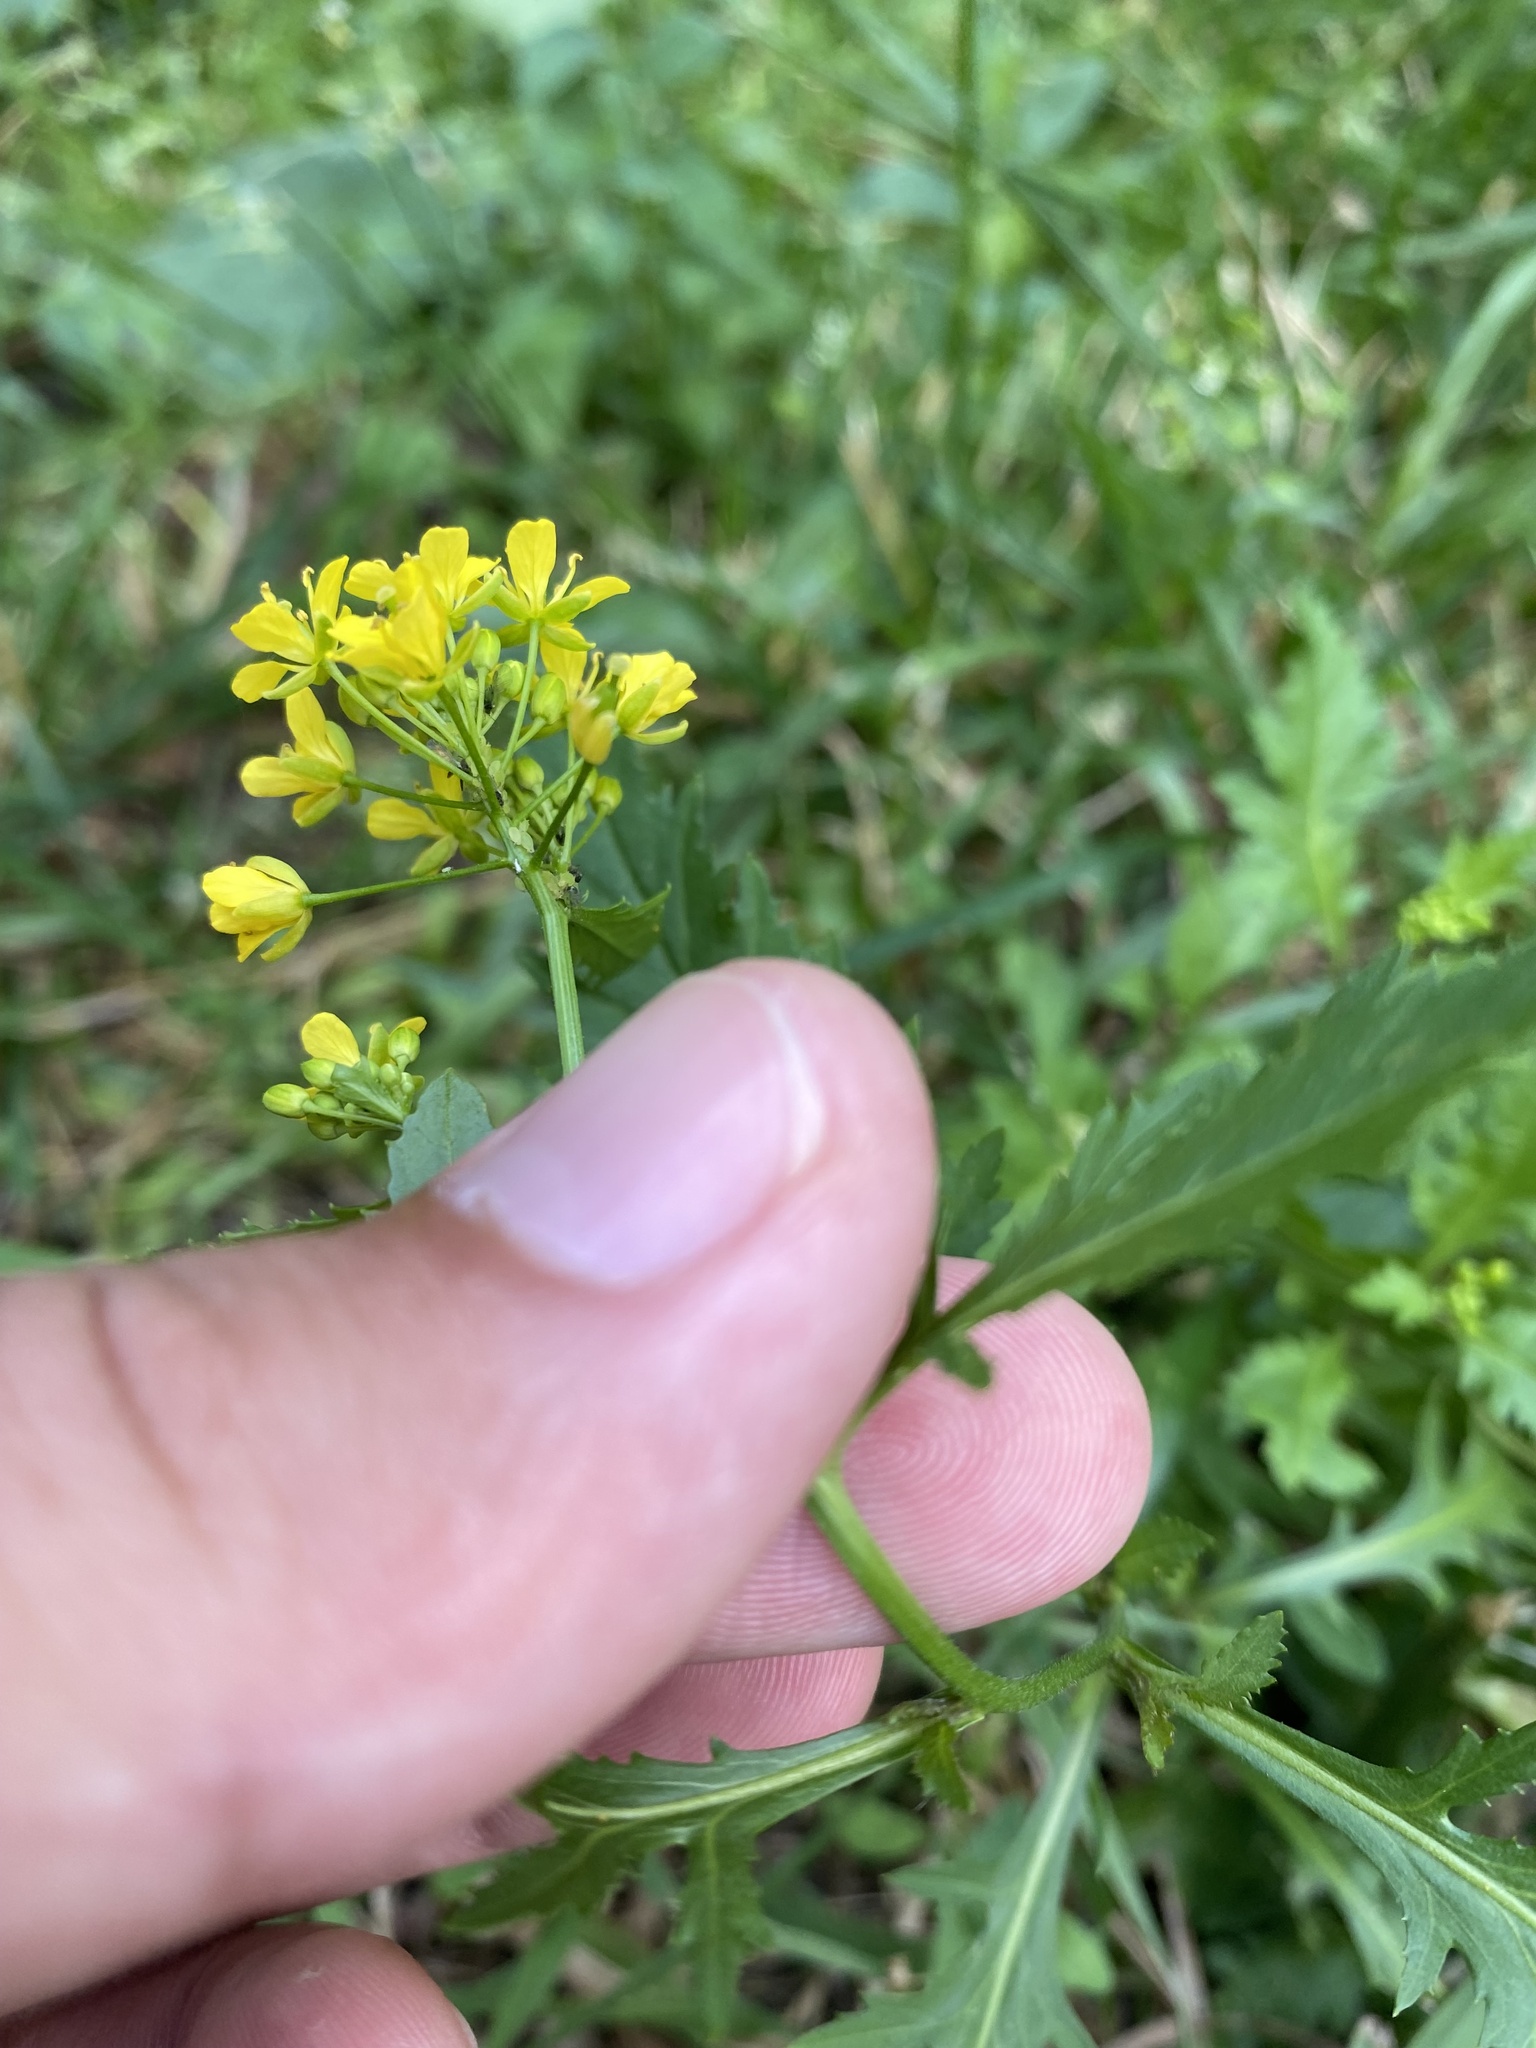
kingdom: Plantae
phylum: Tracheophyta
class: Magnoliopsida
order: Brassicales
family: Brassicaceae
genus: Rorippa
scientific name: Rorippa anceps
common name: Rorippa
